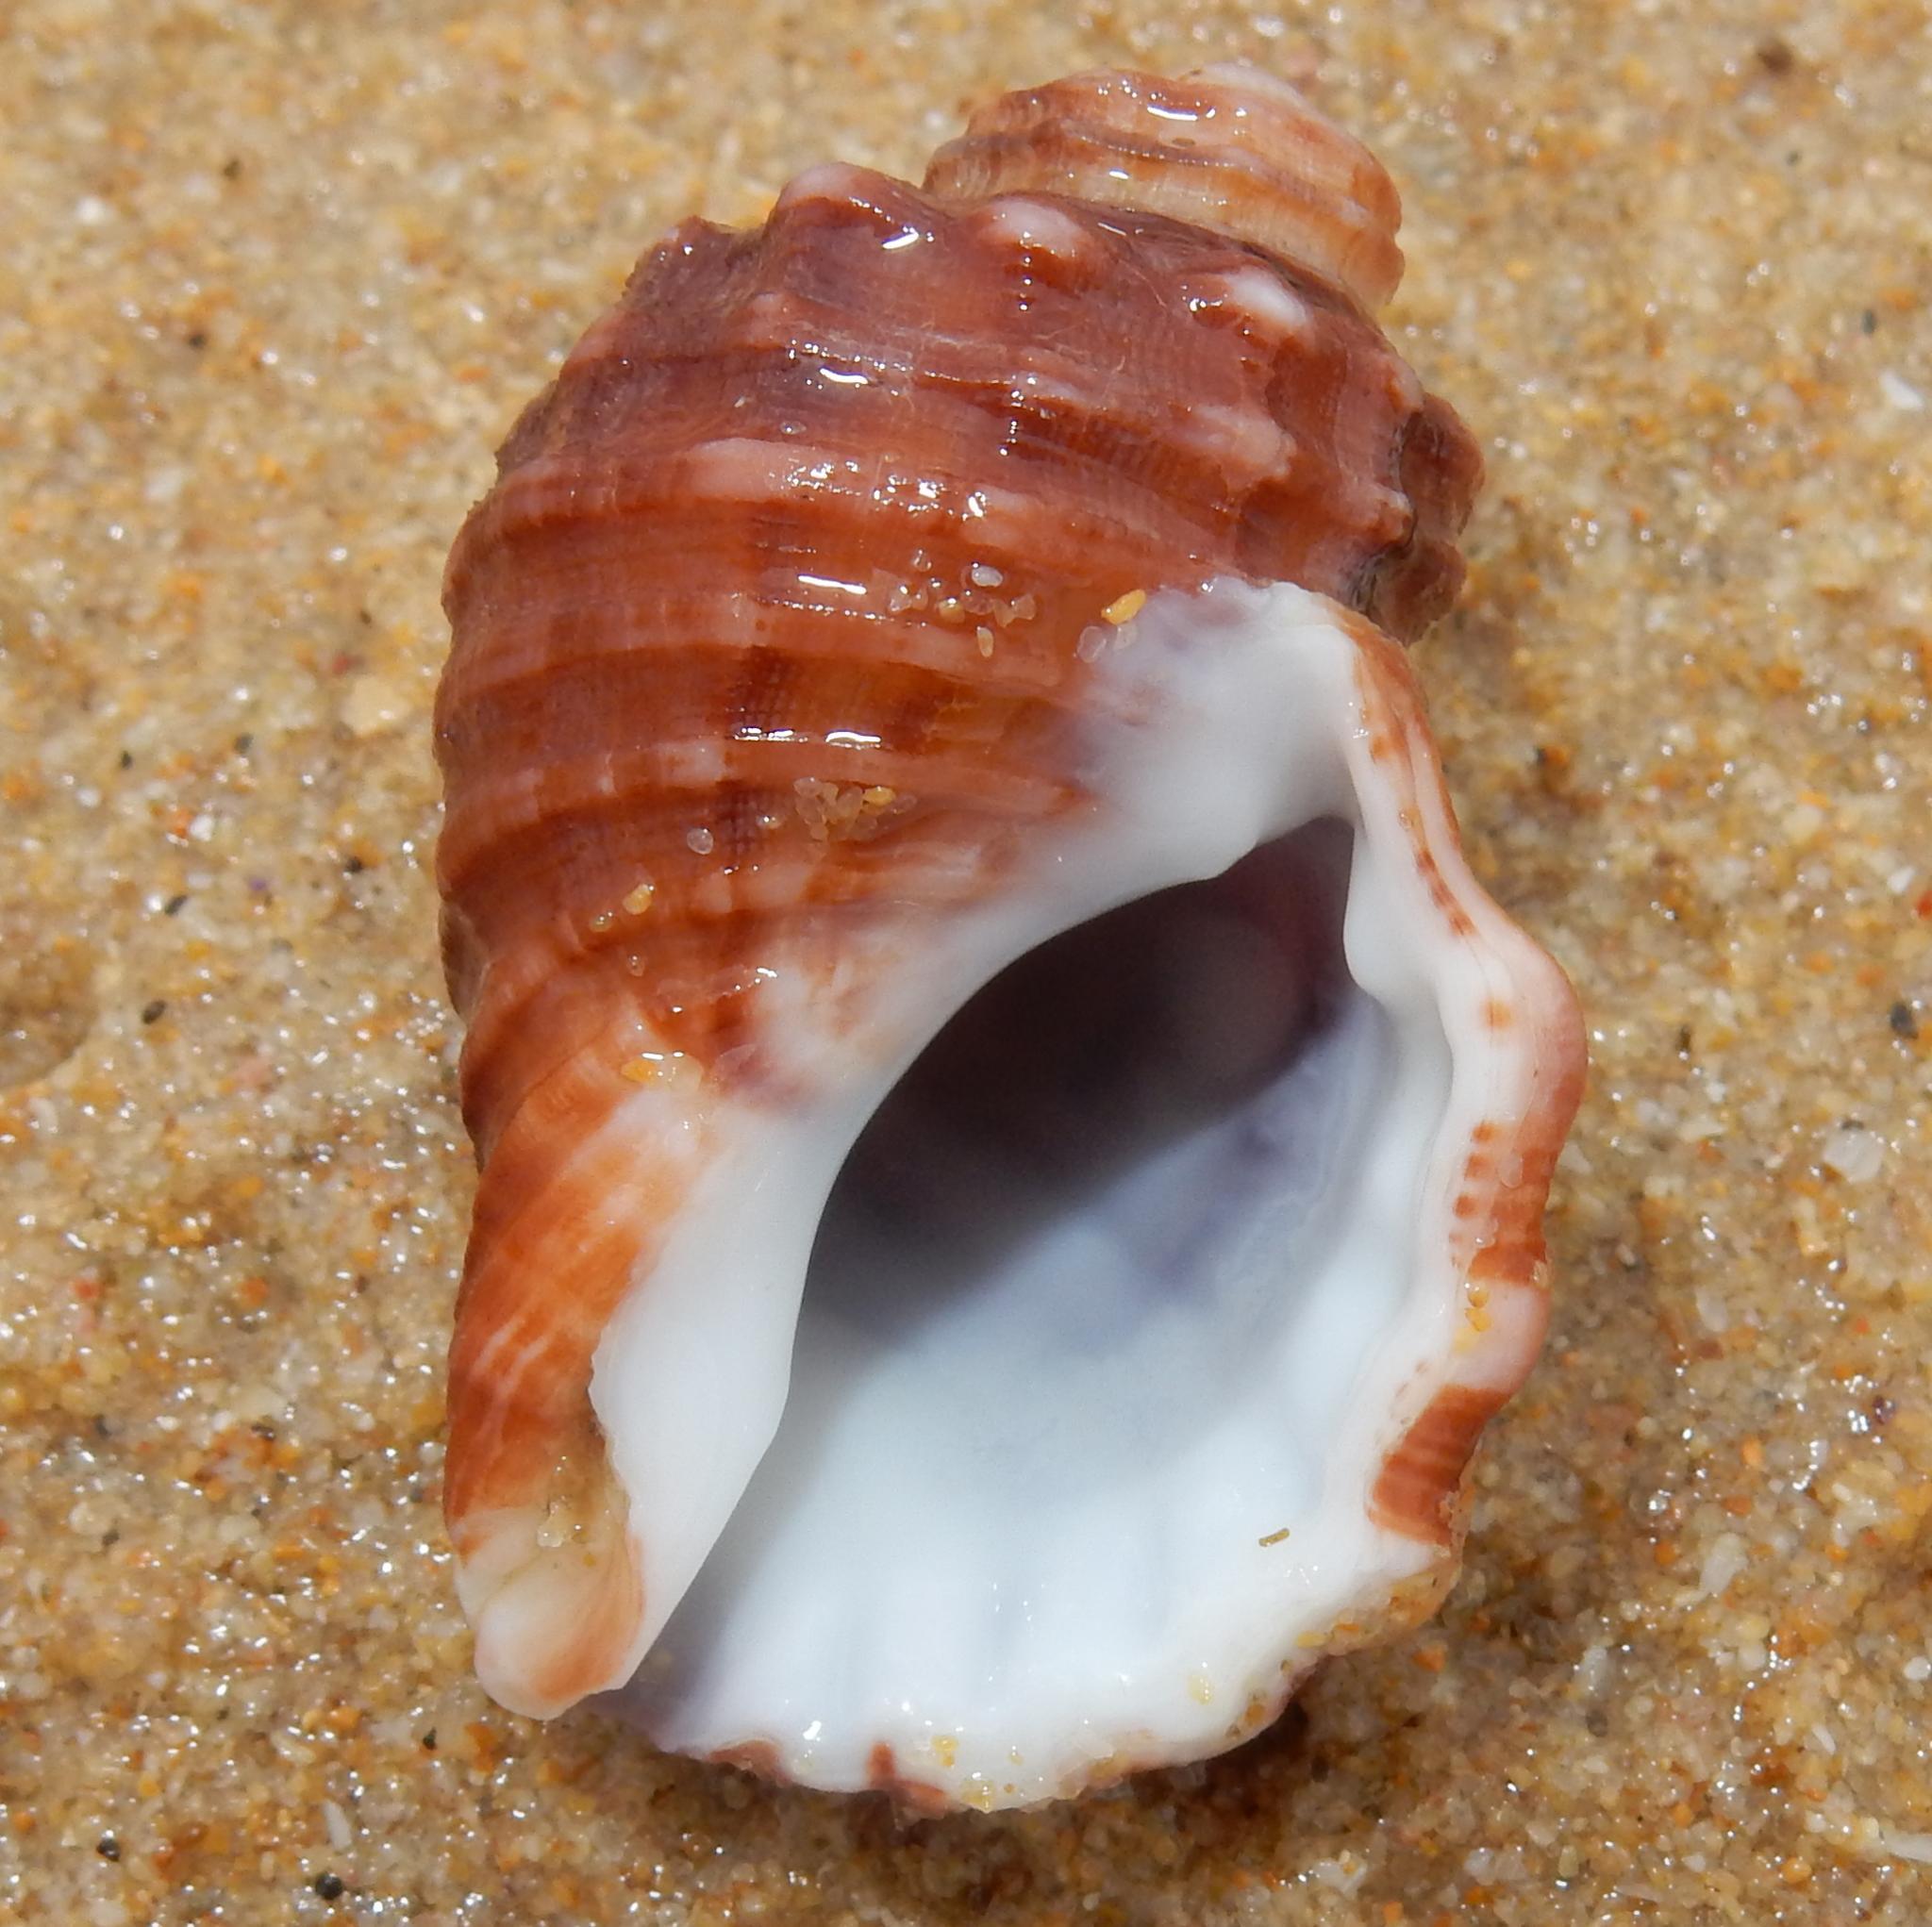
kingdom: Animalia
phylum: Mollusca
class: Gastropoda
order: Littorinimorpha
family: Cymatiidae
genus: Cabestana
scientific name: Cabestana africana
